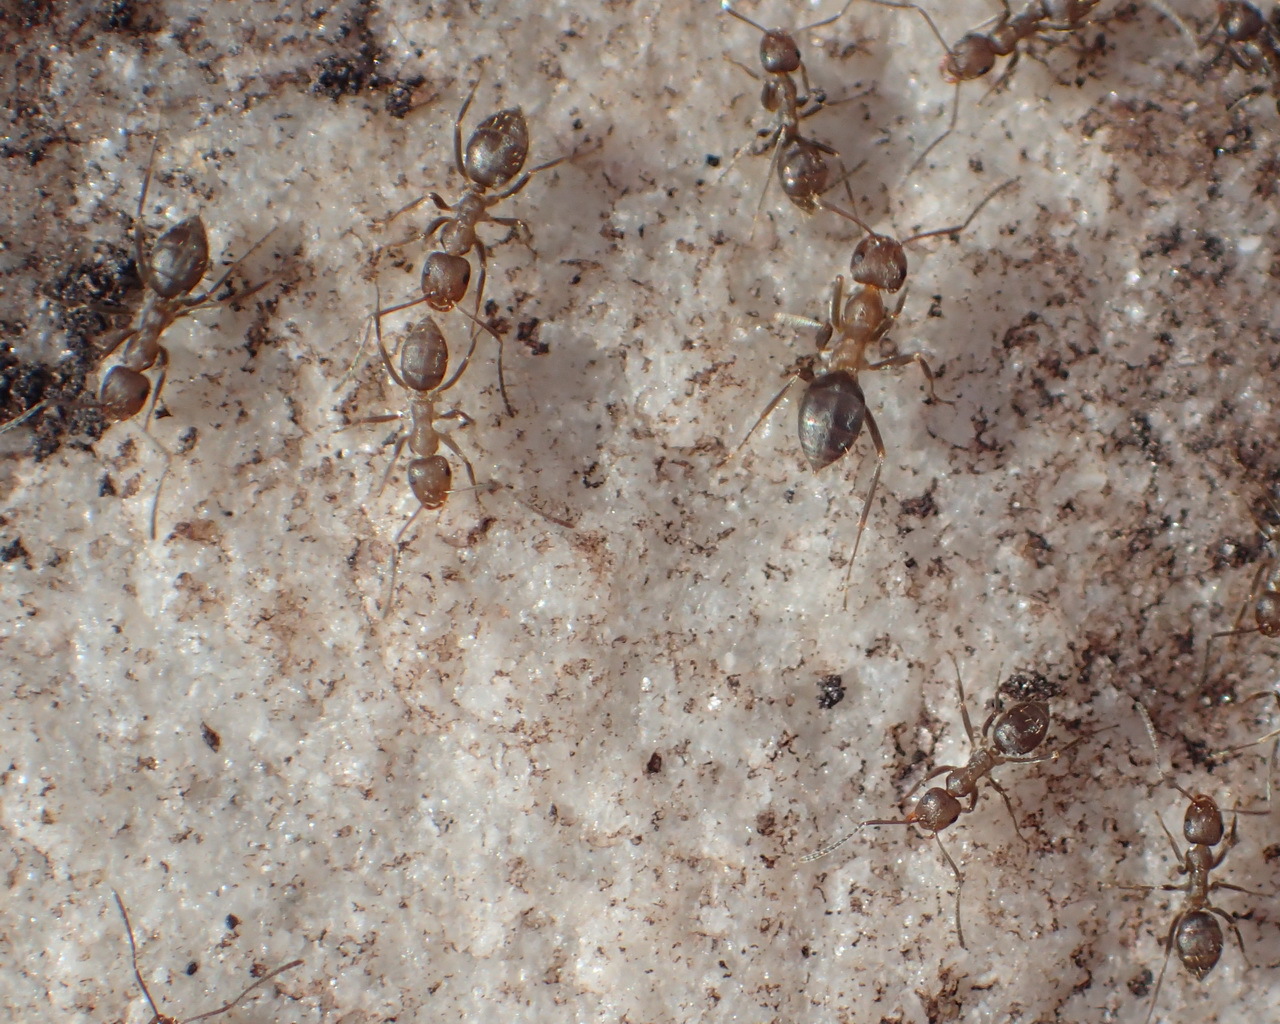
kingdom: Animalia
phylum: Arthropoda
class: Insecta
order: Hymenoptera
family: Formicidae
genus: Anoplolepis
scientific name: Anoplolepis rufescens
